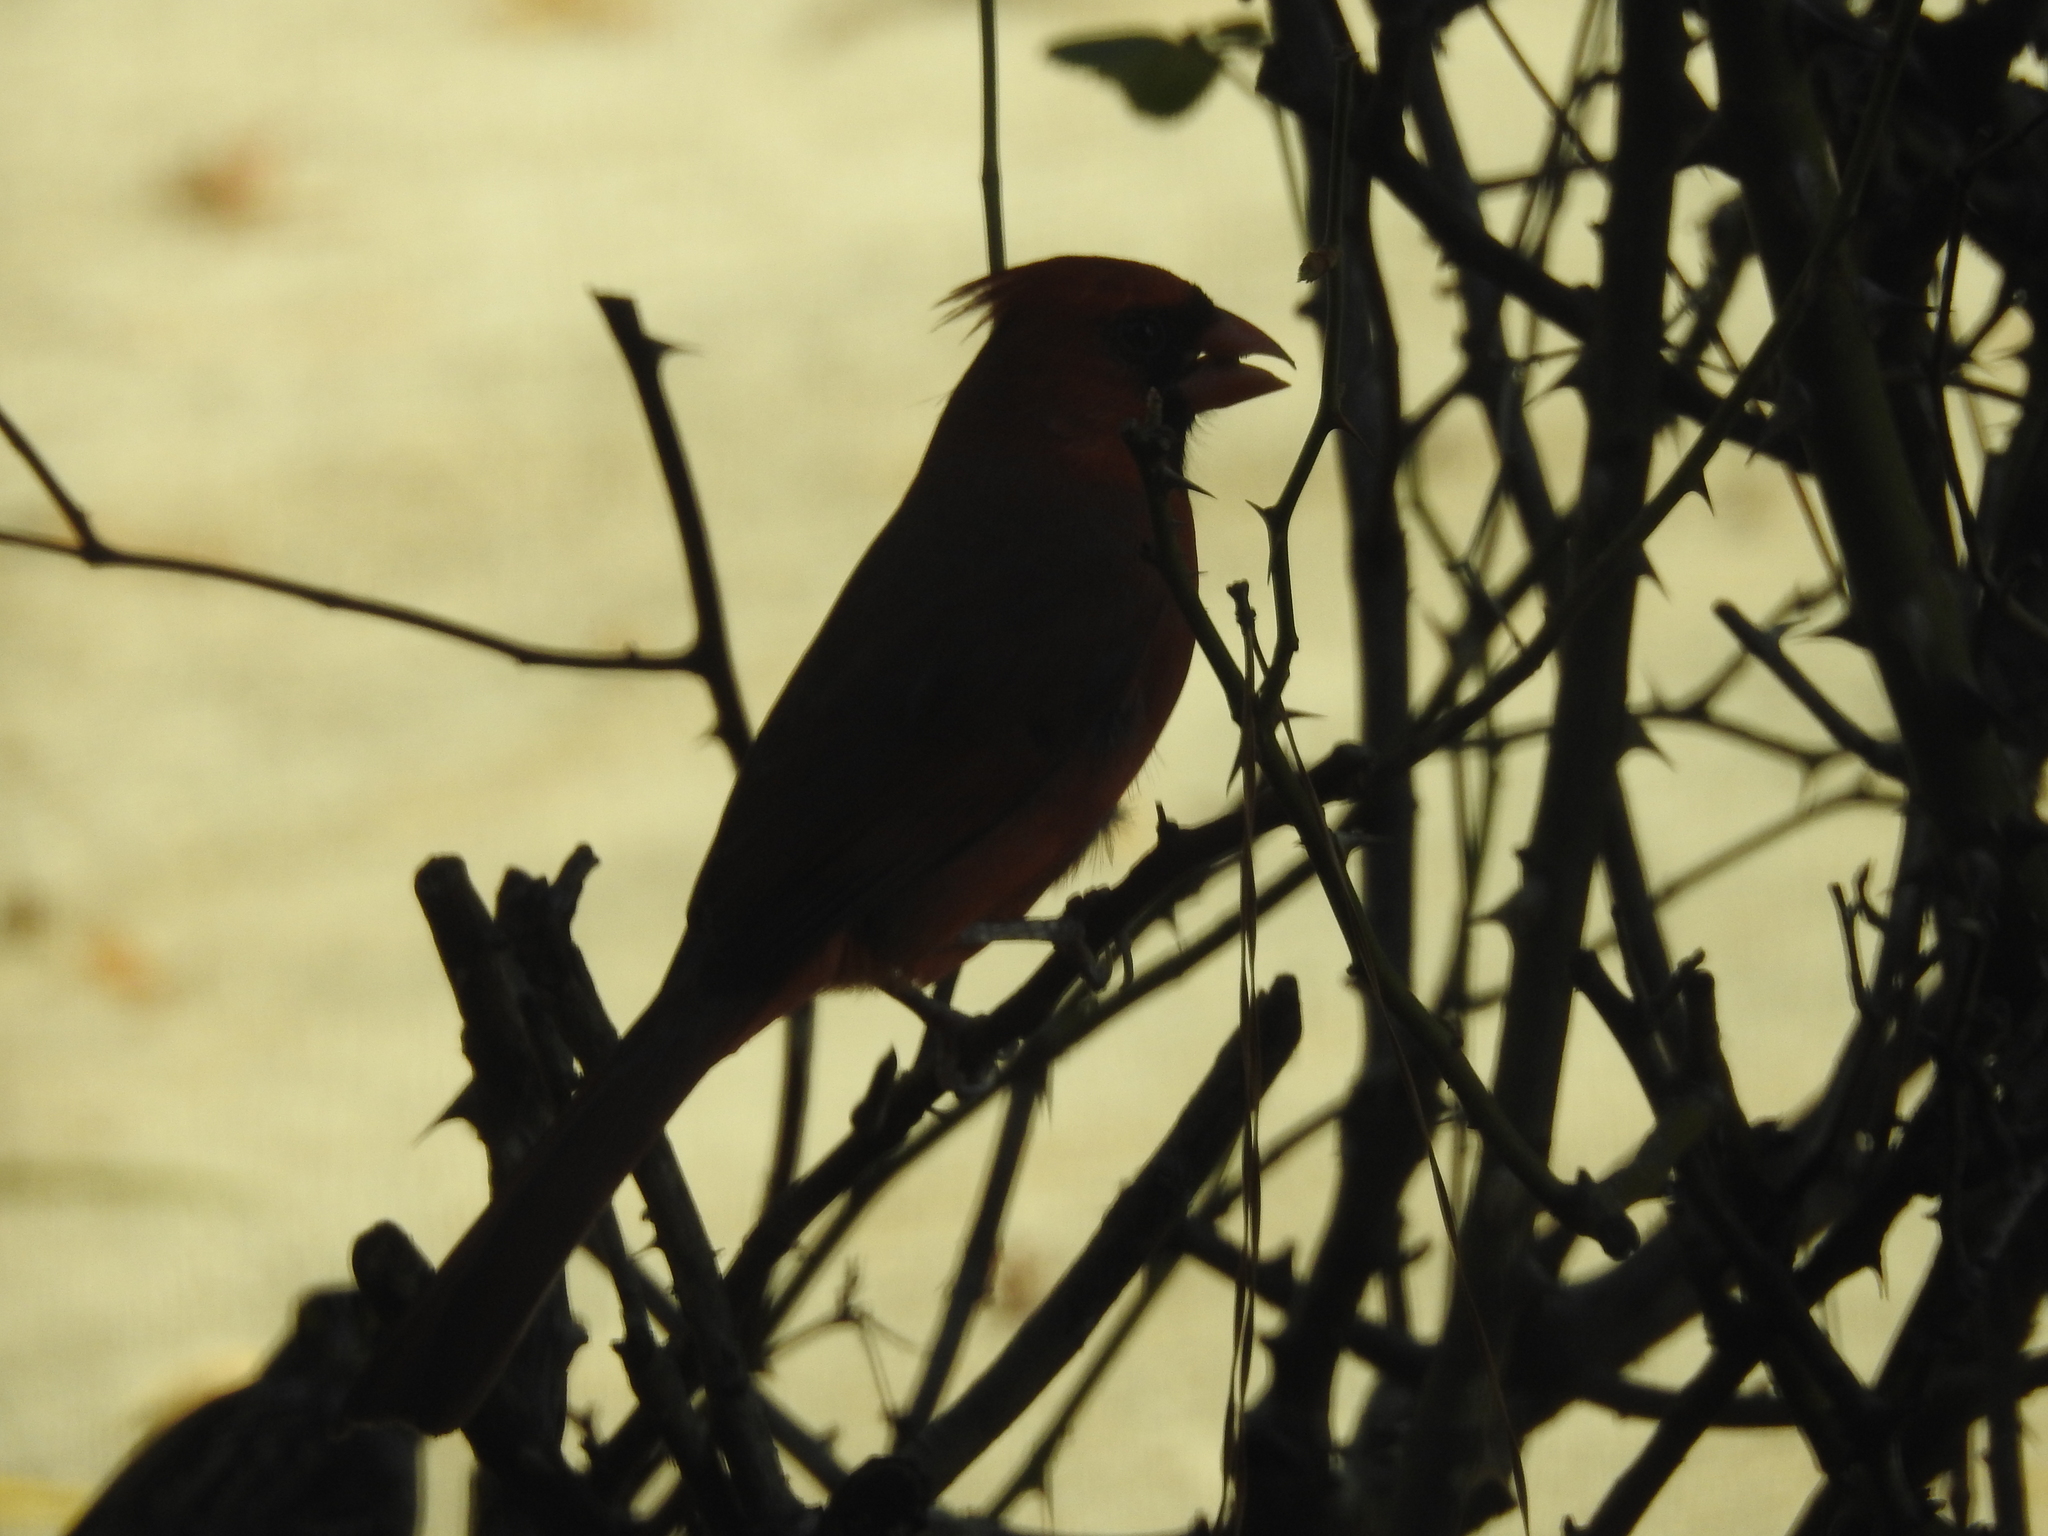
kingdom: Animalia
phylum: Chordata
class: Aves
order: Passeriformes
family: Cardinalidae
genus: Cardinalis
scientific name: Cardinalis cardinalis
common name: Northern cardinal
